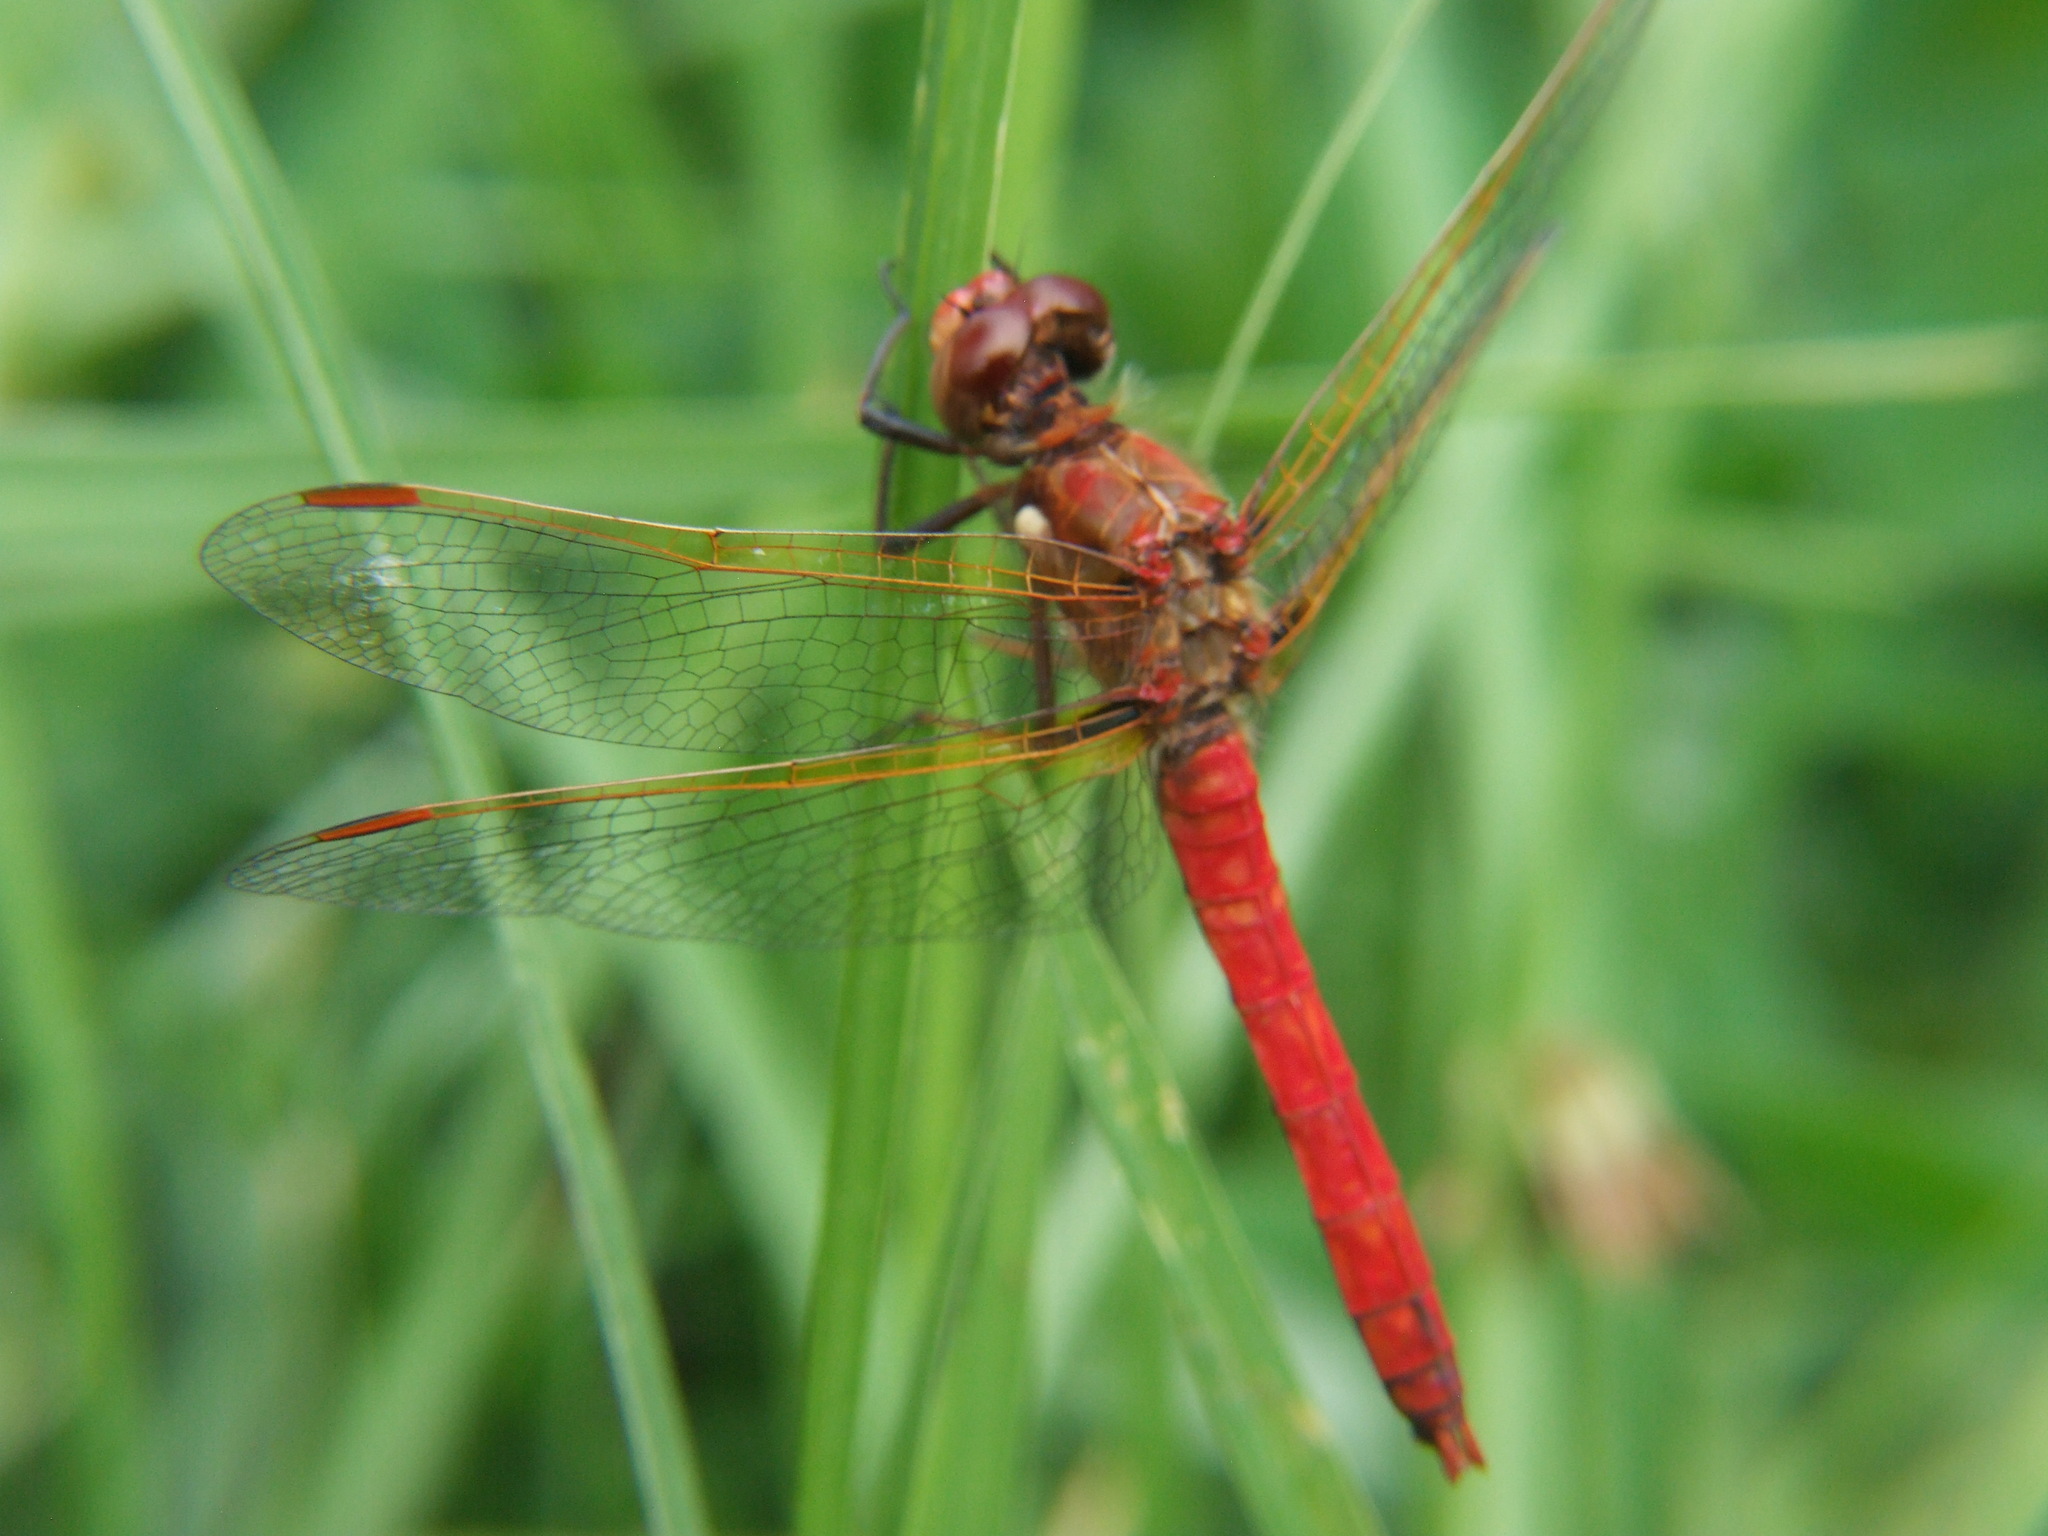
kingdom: Animalia
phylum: Arthropoda
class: Insecta
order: Odonata
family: Libellulidae
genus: Sympetrum
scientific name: Sympetrum gilvum
